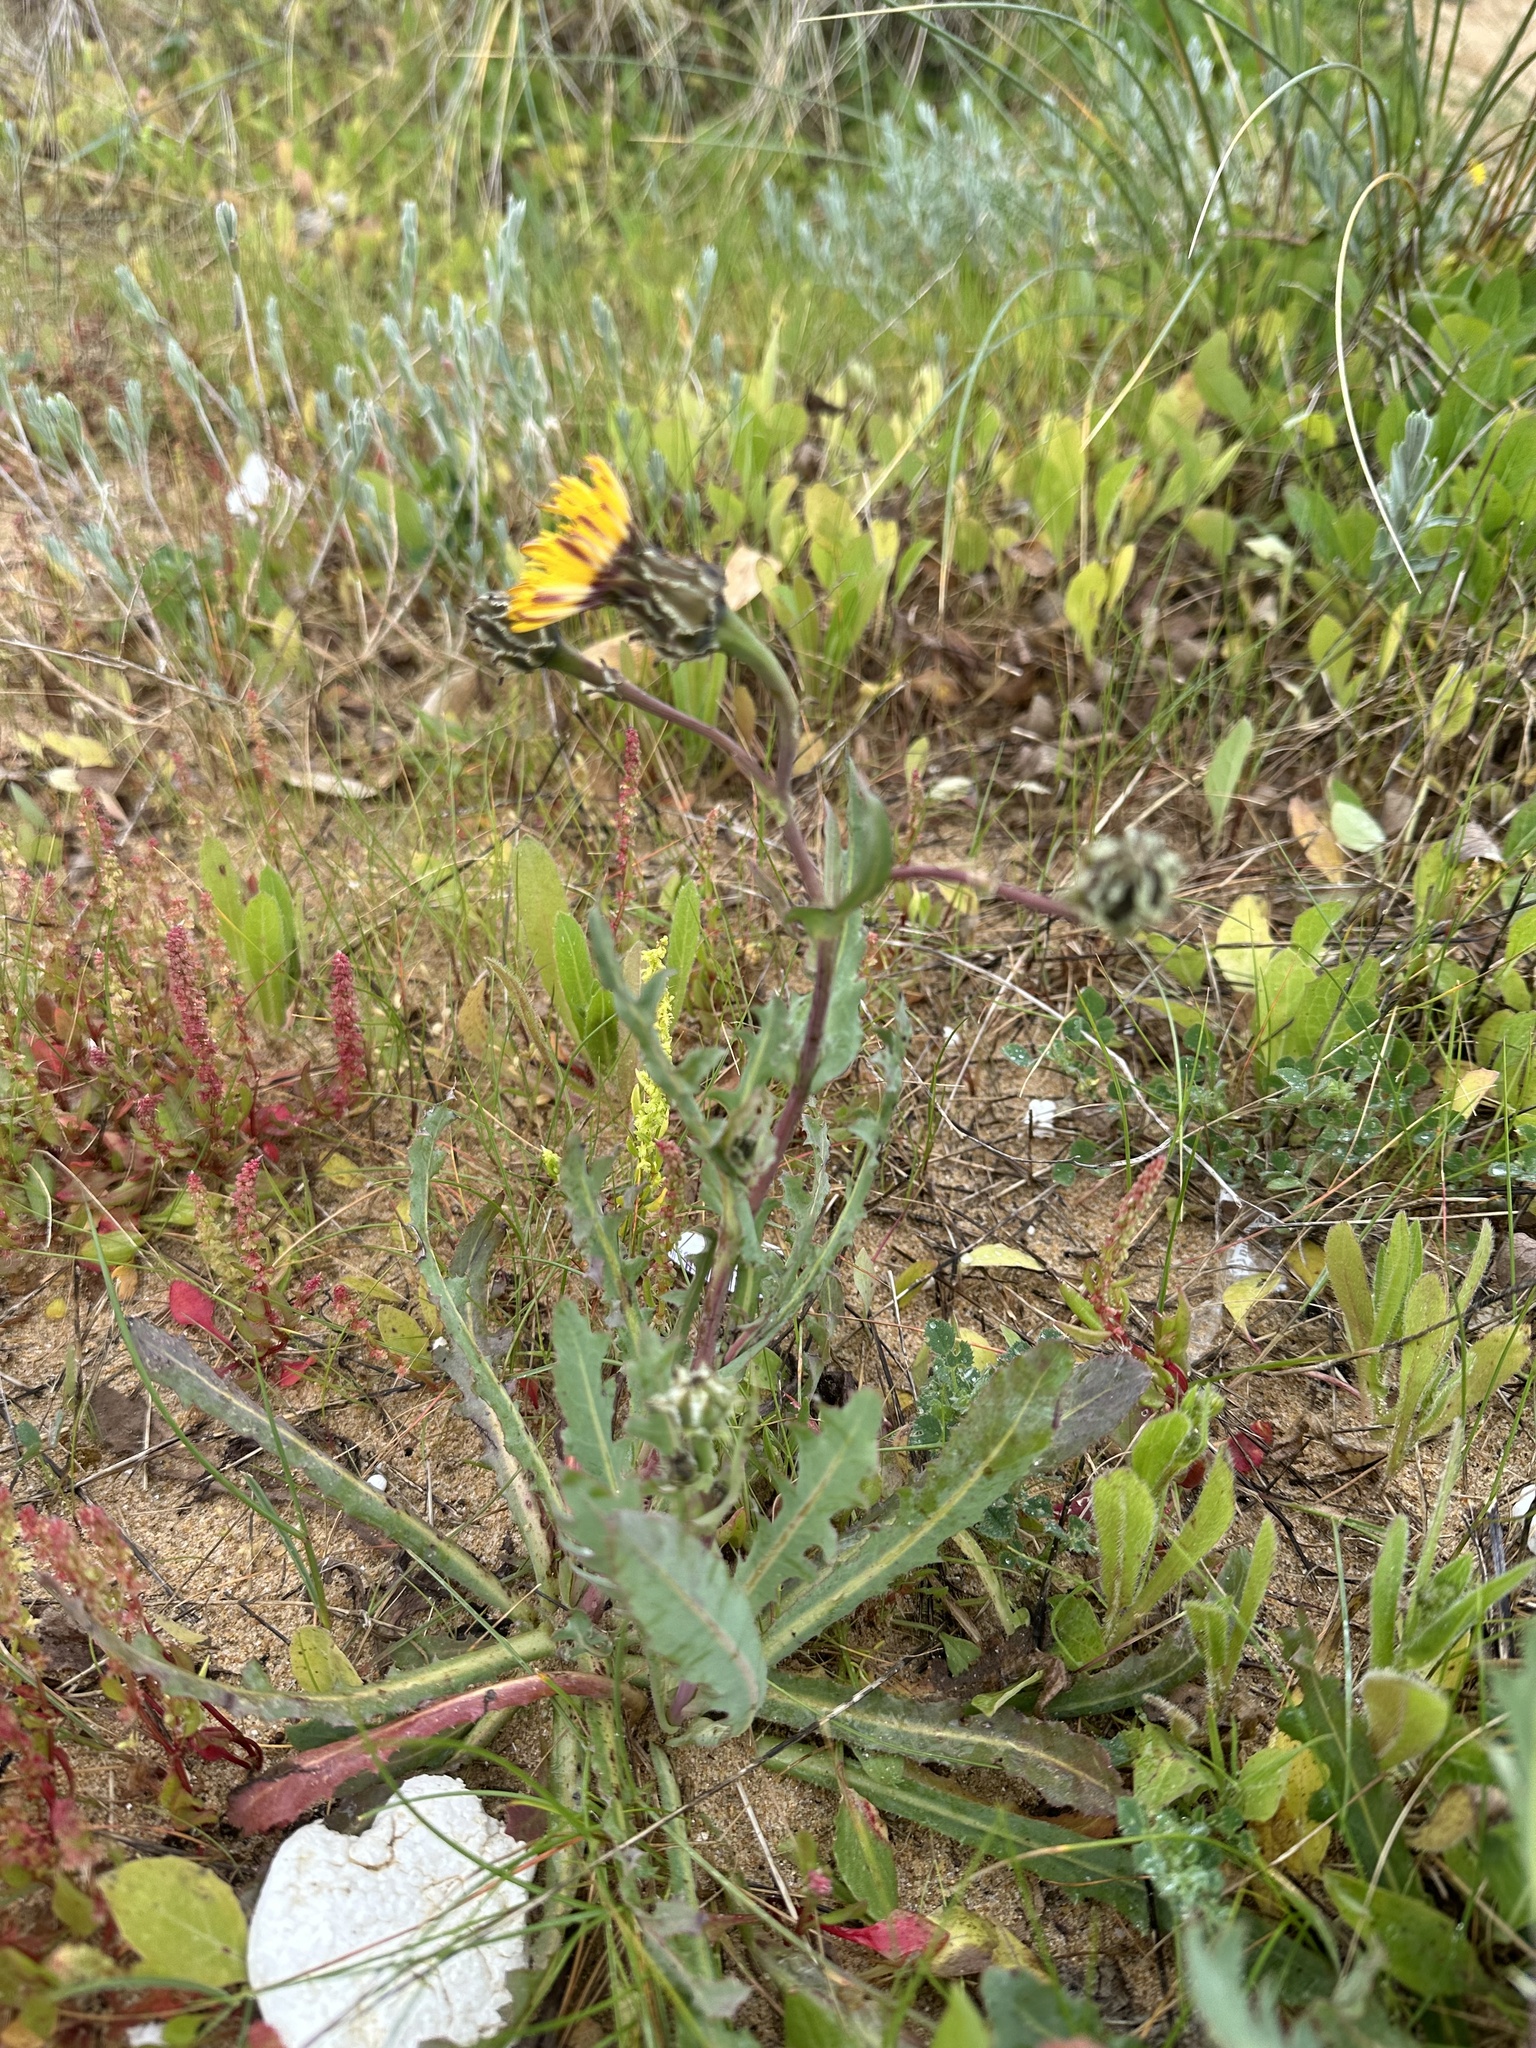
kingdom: Plantae
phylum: Tracheophyta
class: Magnoliopsida
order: Asterales
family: Asteraceae
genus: Reichardia
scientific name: Reichardia gaditana
